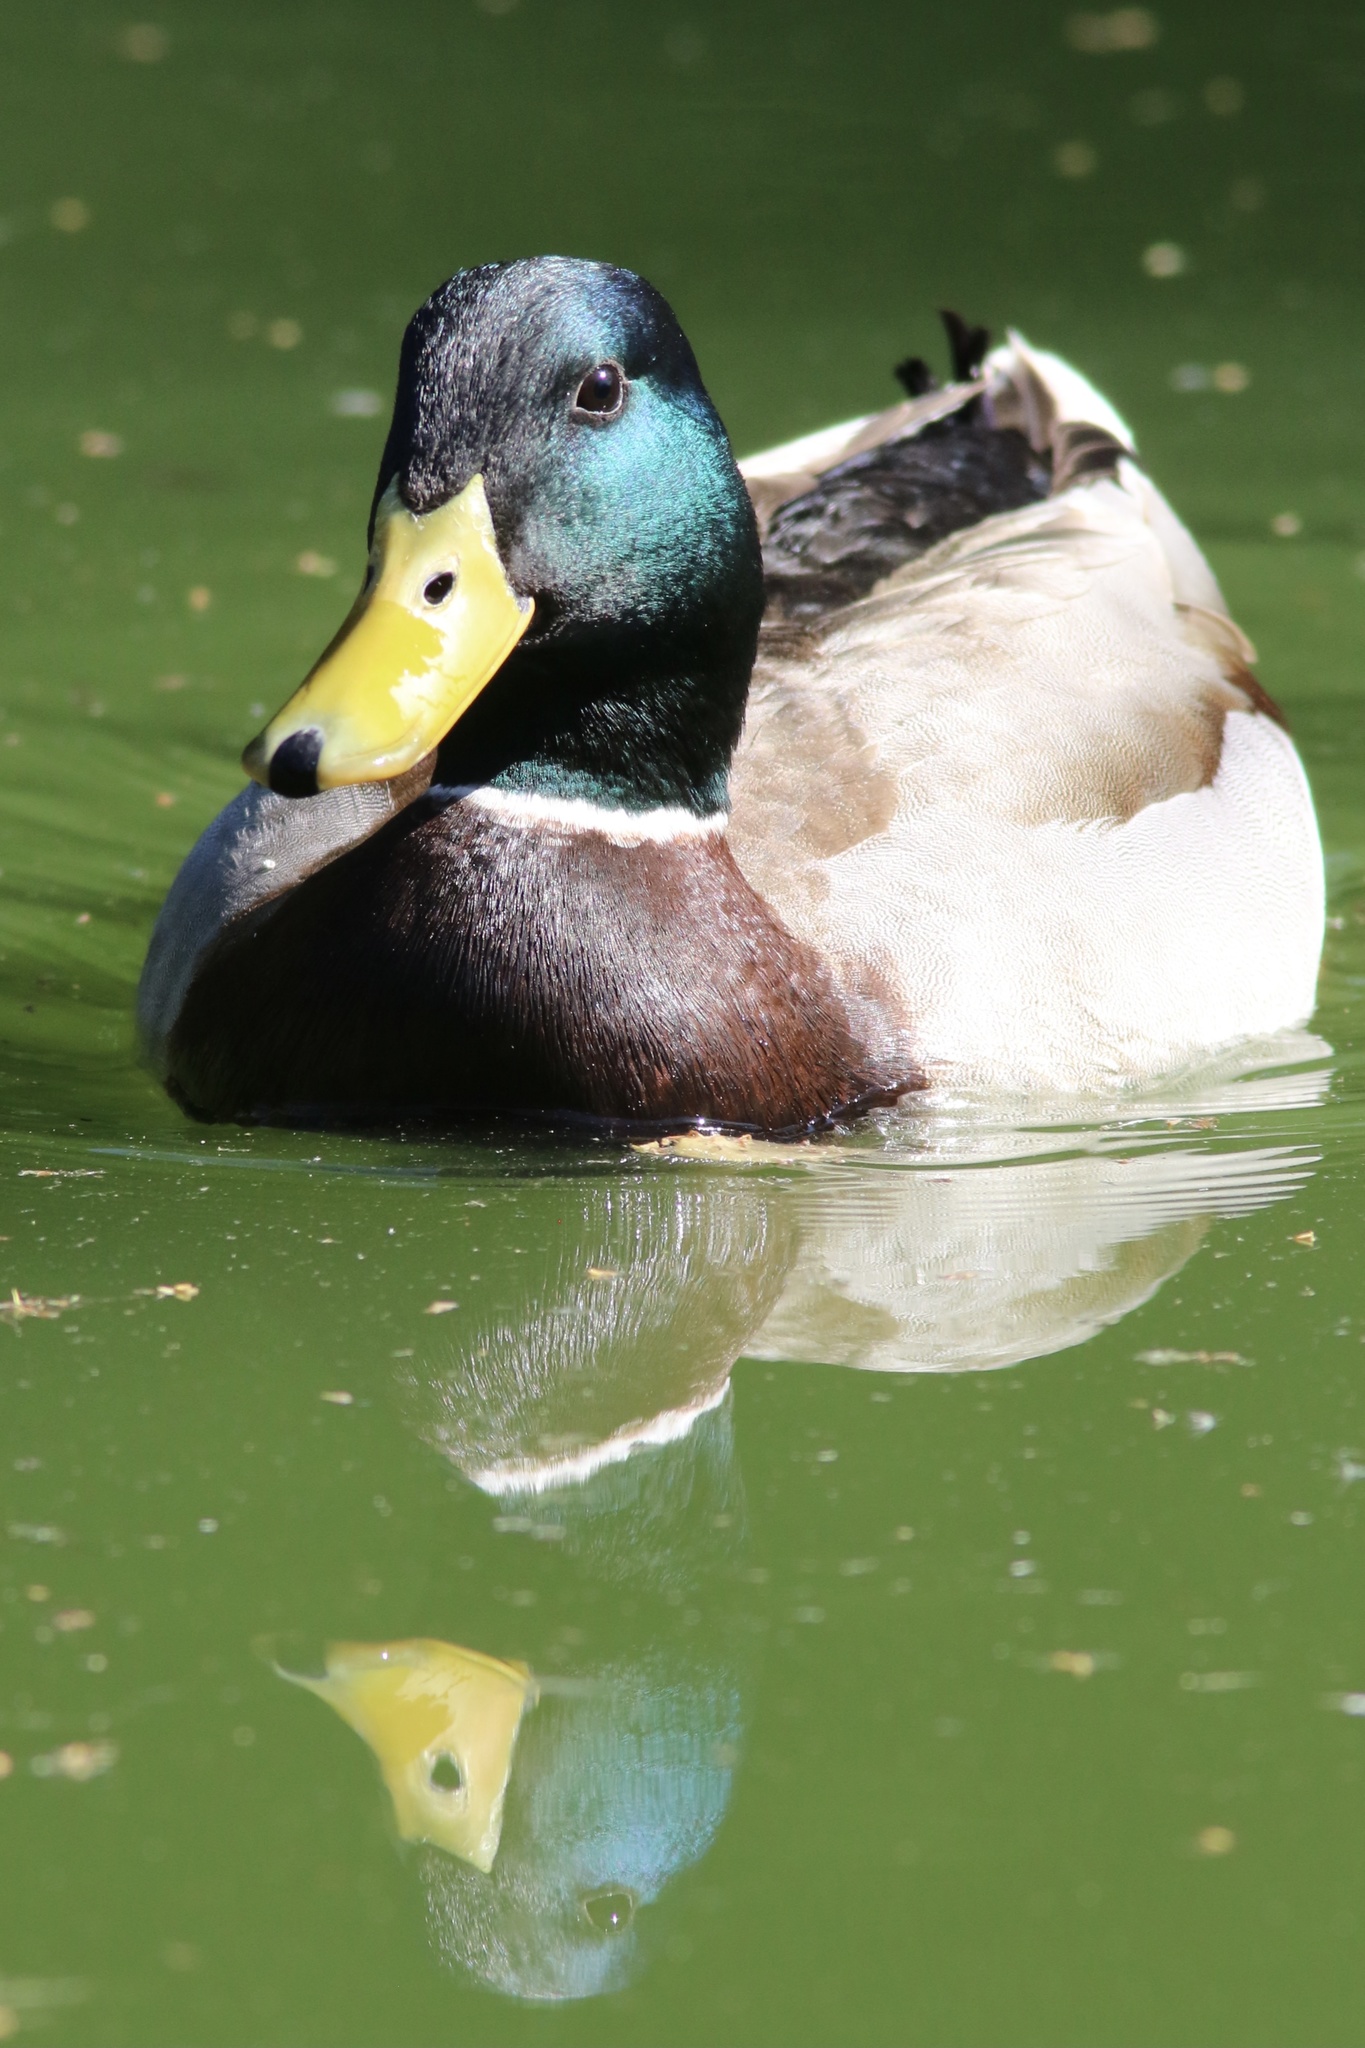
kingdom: Animalia
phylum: Chordata
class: Aves
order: Anseriformes
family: Anatidae
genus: Anas
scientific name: Anas platyrhynchos
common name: Mallard
